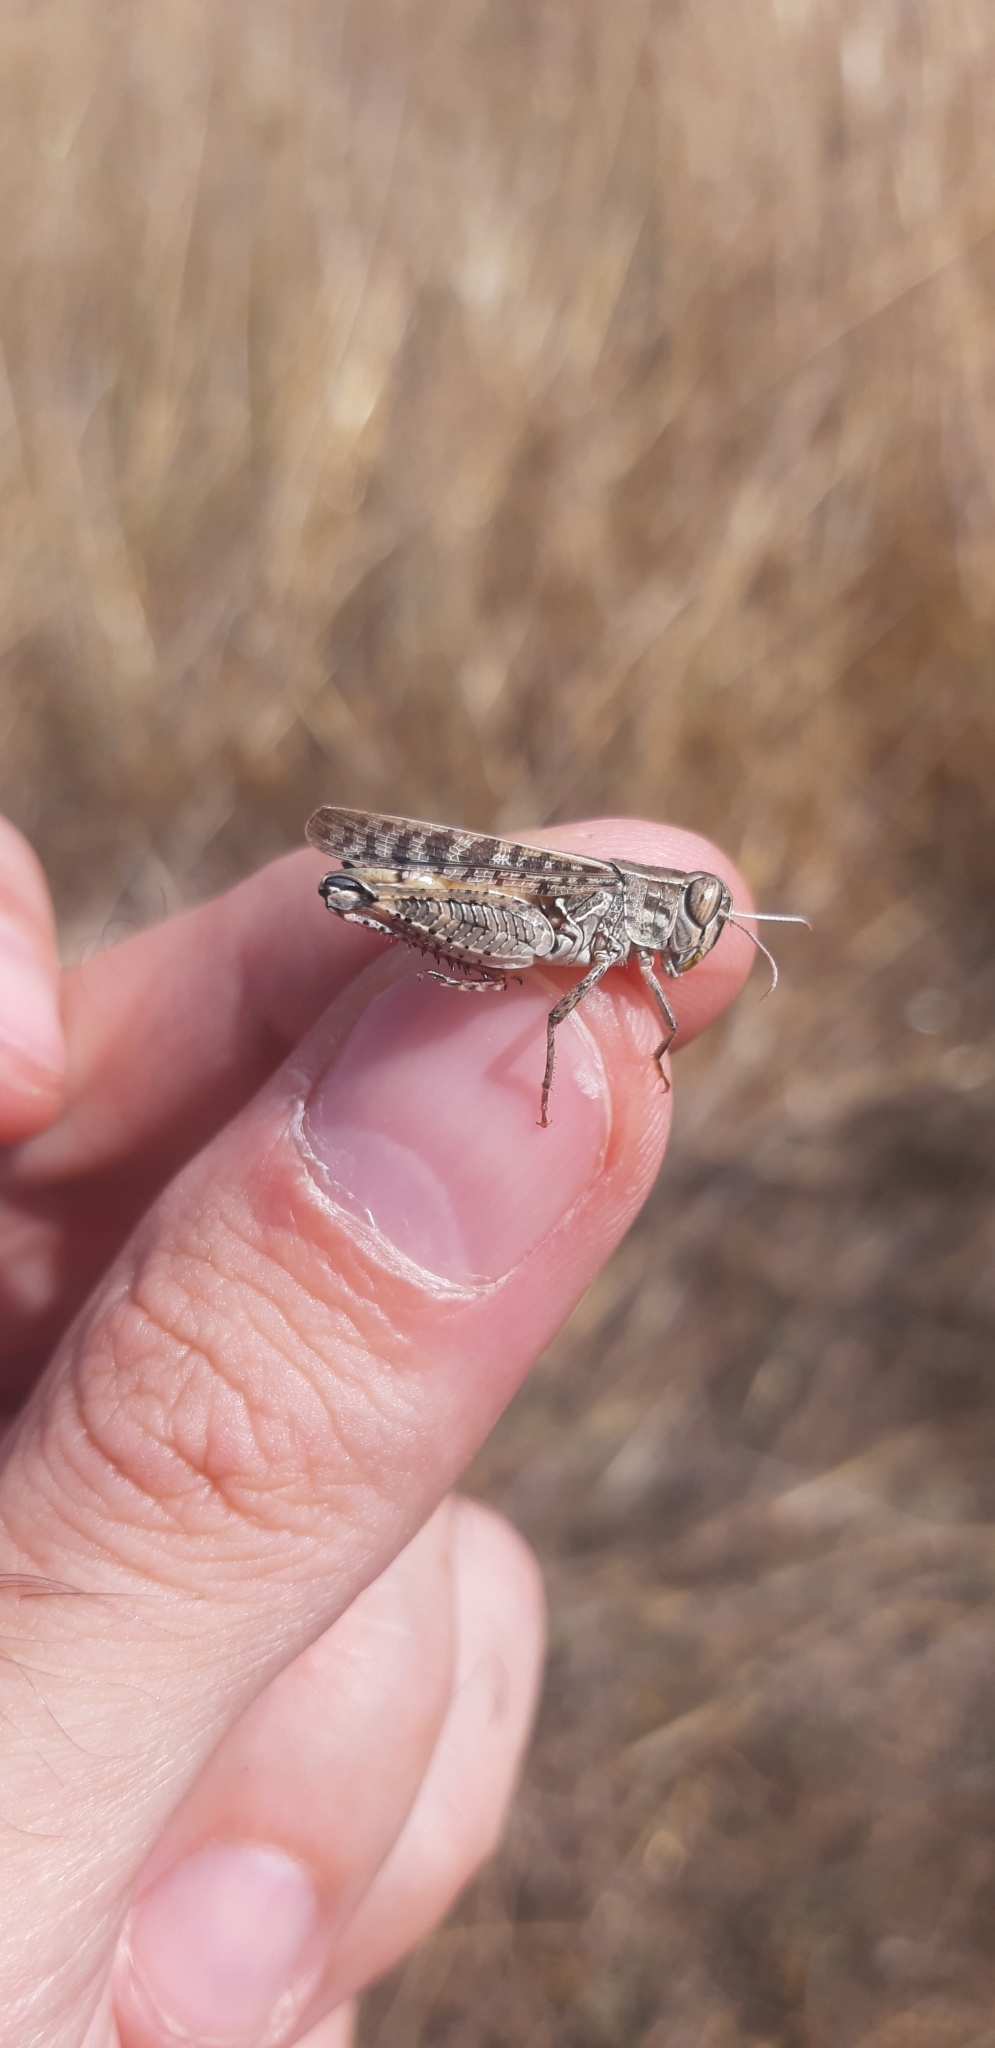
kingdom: Animalia
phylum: Arthropoda
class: Insecta
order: Orthoptera
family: Acrididae
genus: Calliptamus
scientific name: Calliptamus italicus
